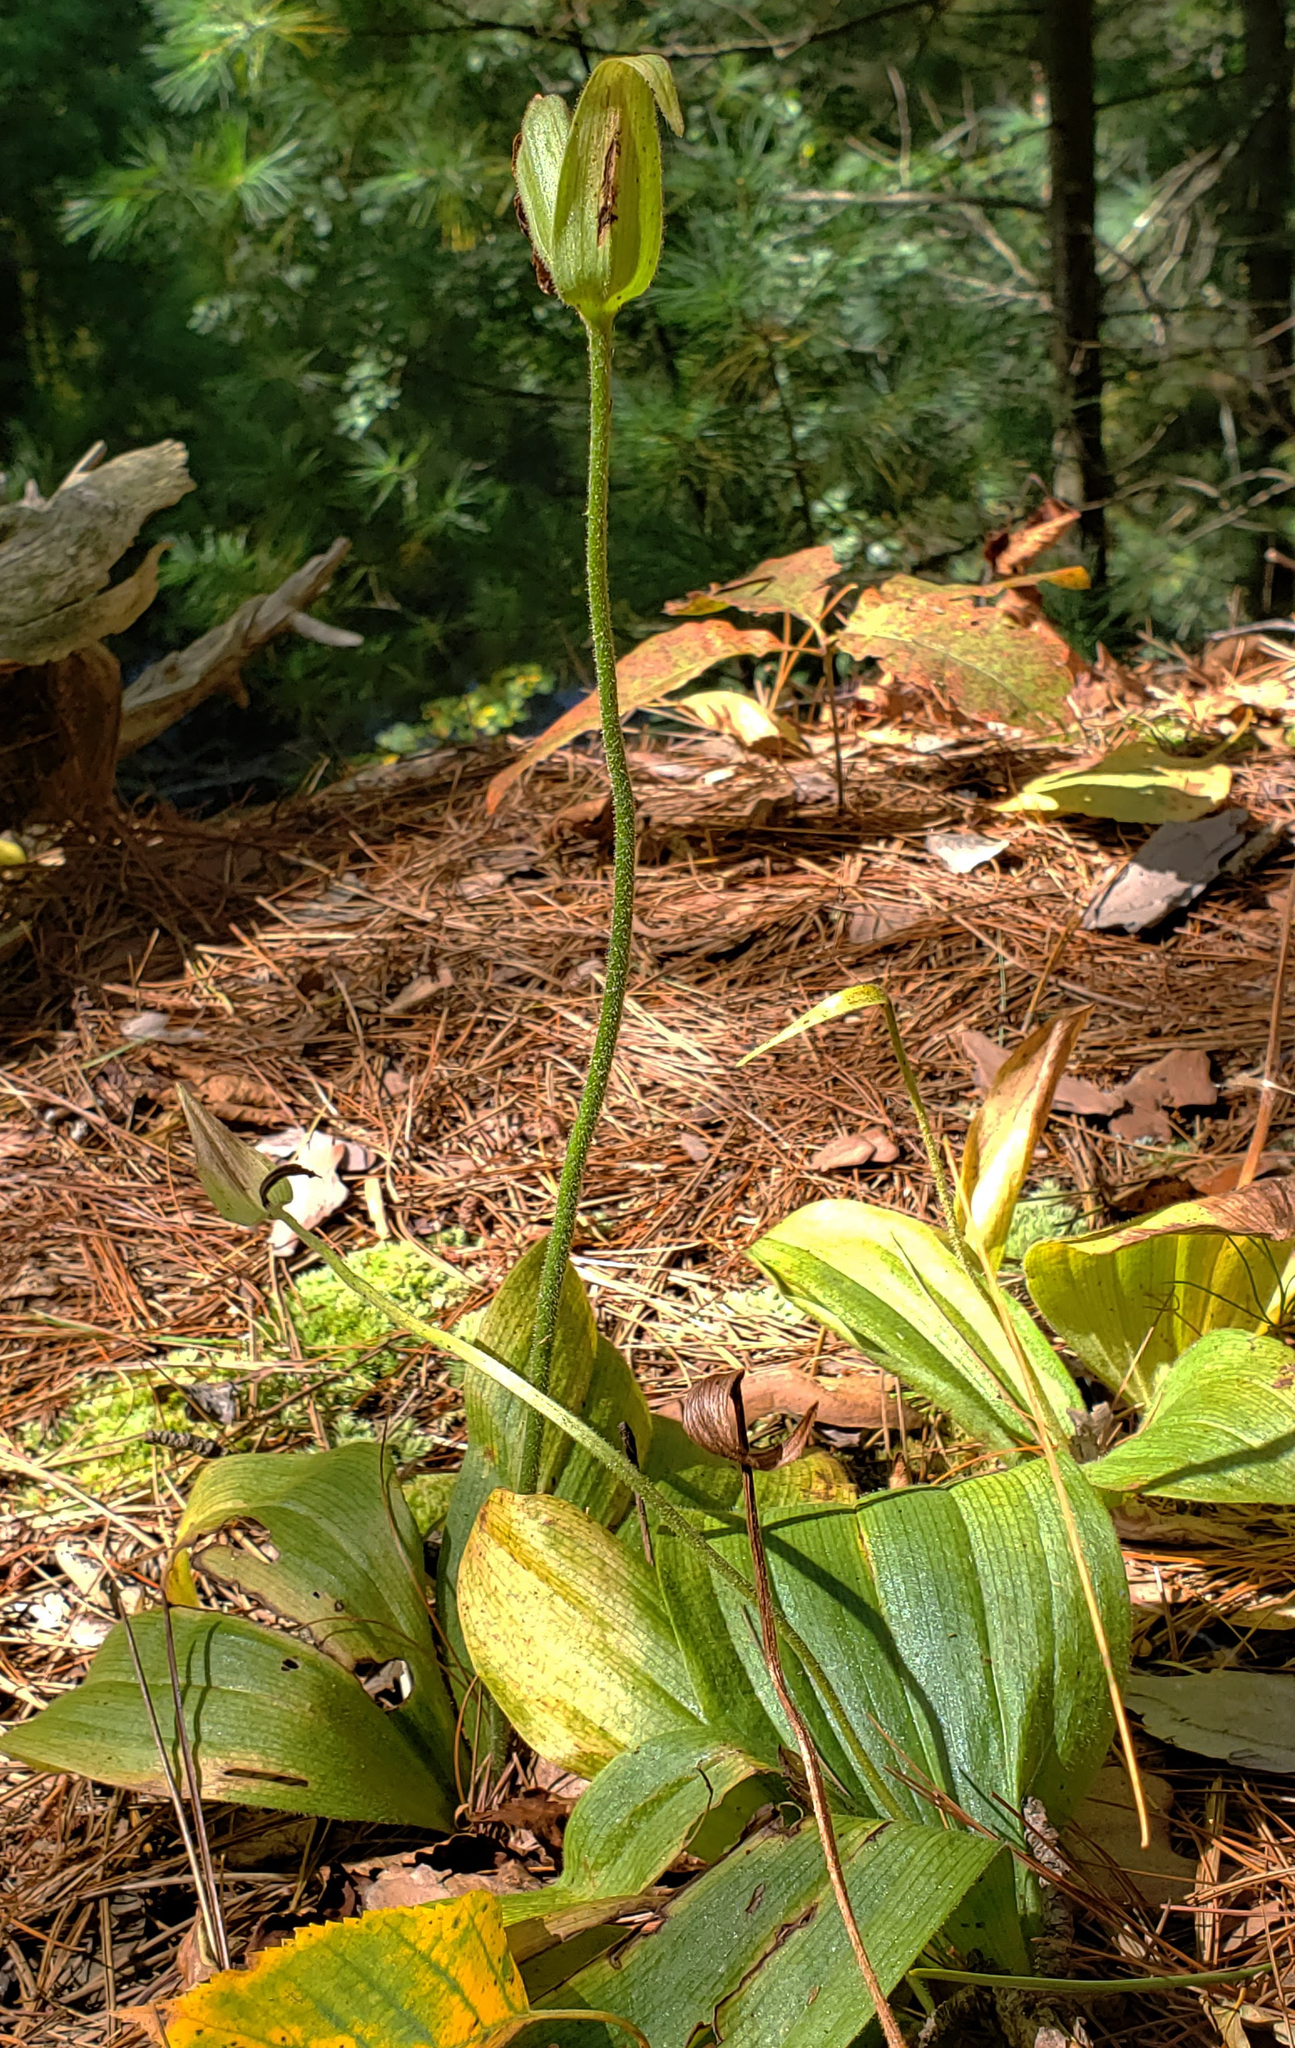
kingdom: Plantae
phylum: Tracheophyta
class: Liliopsida
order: Asparagales
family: Orchidaceae
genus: Cypripedium
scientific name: Cypripedium acaule
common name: Pink lady's-slipper
